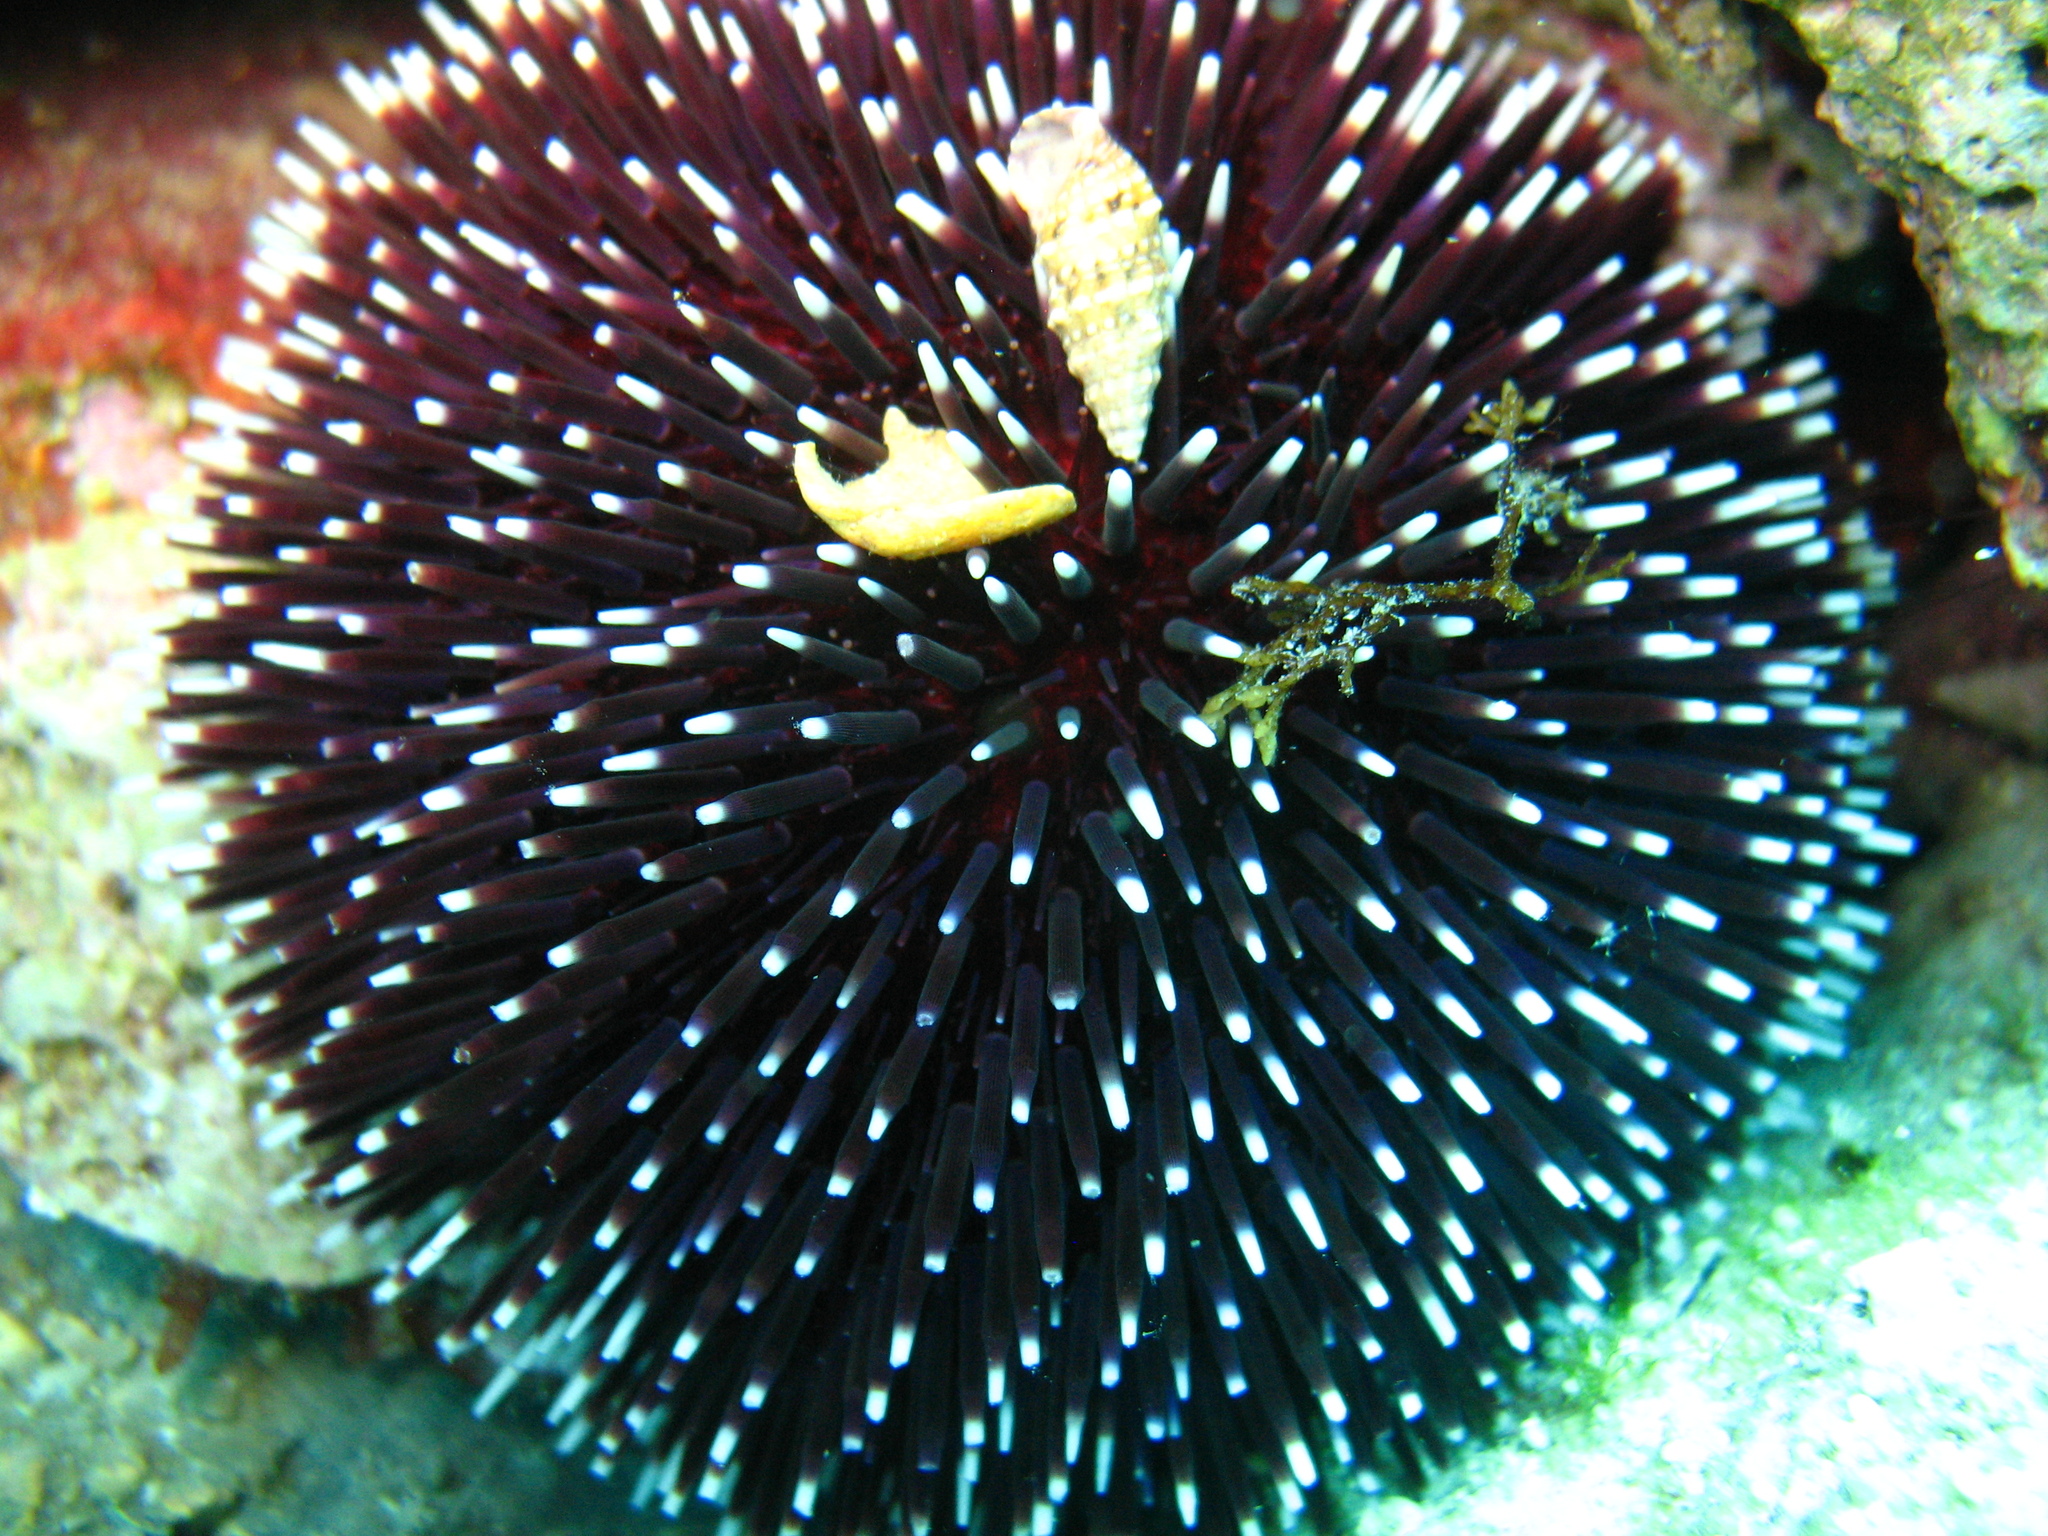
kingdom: Animalia
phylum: Echinodermata
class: Echinoidea
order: Camarodonta
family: Toxopneustidae
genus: Sphaerechinus
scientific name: Sphaerechinus granularis
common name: Violet sea urchin
